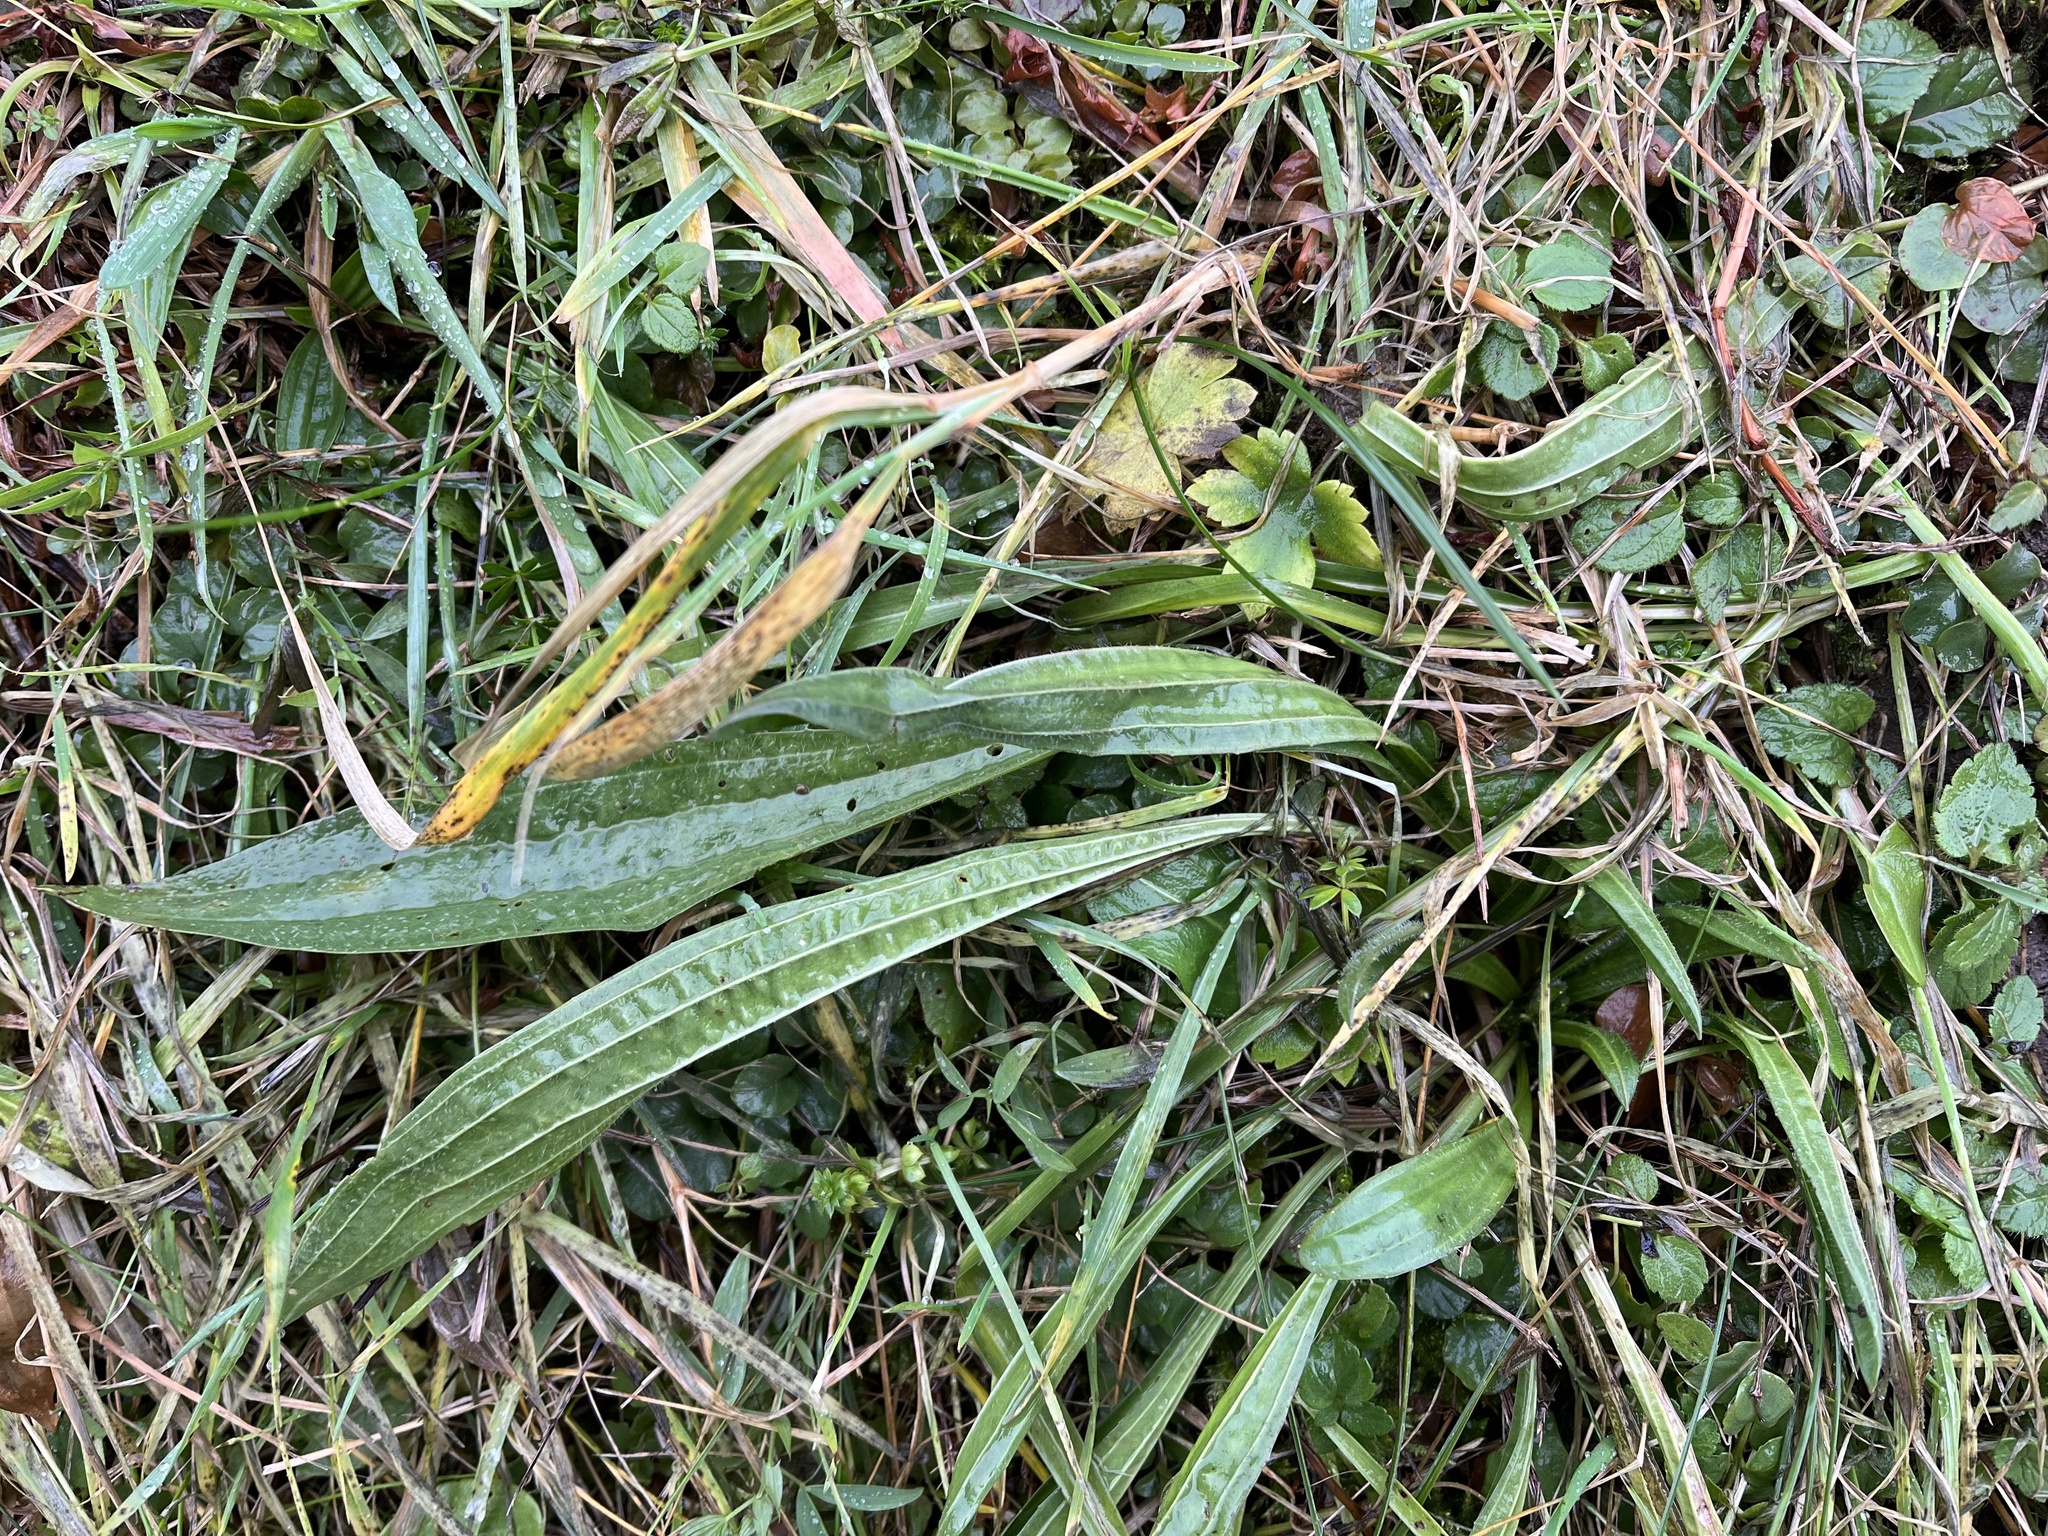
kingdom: Plantae
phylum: Tracheophyta
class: Magnoliopsida
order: Lamiales
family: Plantaginaceae
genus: Plantago
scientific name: Plantago lanceolata
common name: Ribwort plantain
